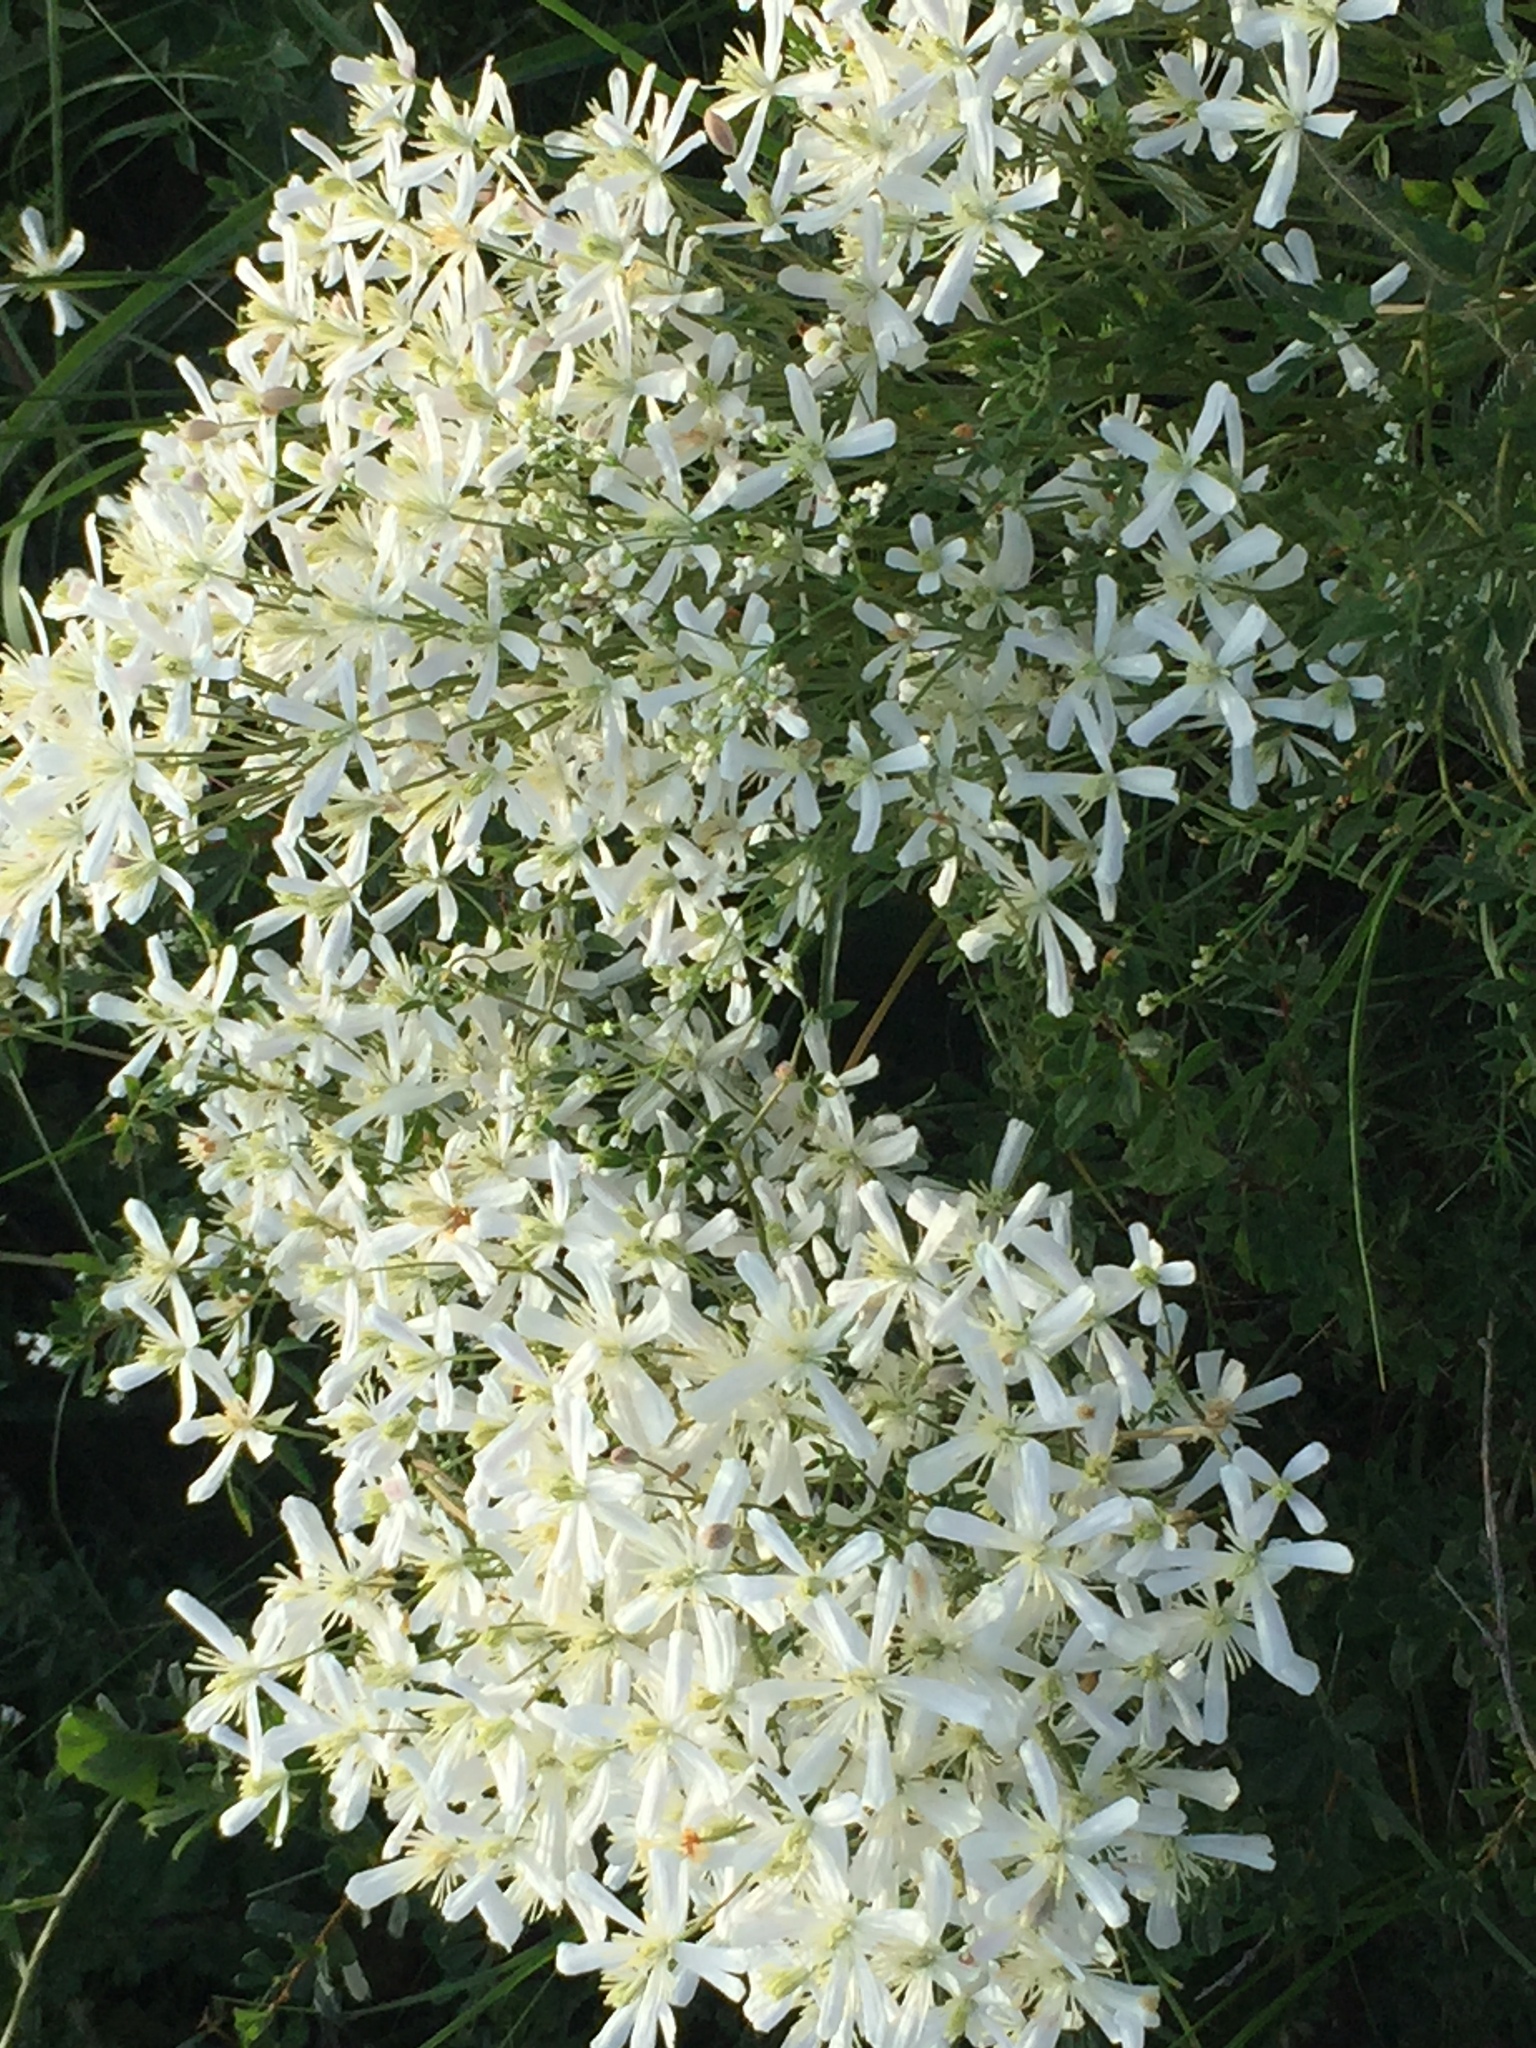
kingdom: Plantae
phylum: Tracheophyta
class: Magnoliopsida
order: Ranunculales
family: Ranunculaceae
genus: Clematis
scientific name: Clematis lathyrifolia
